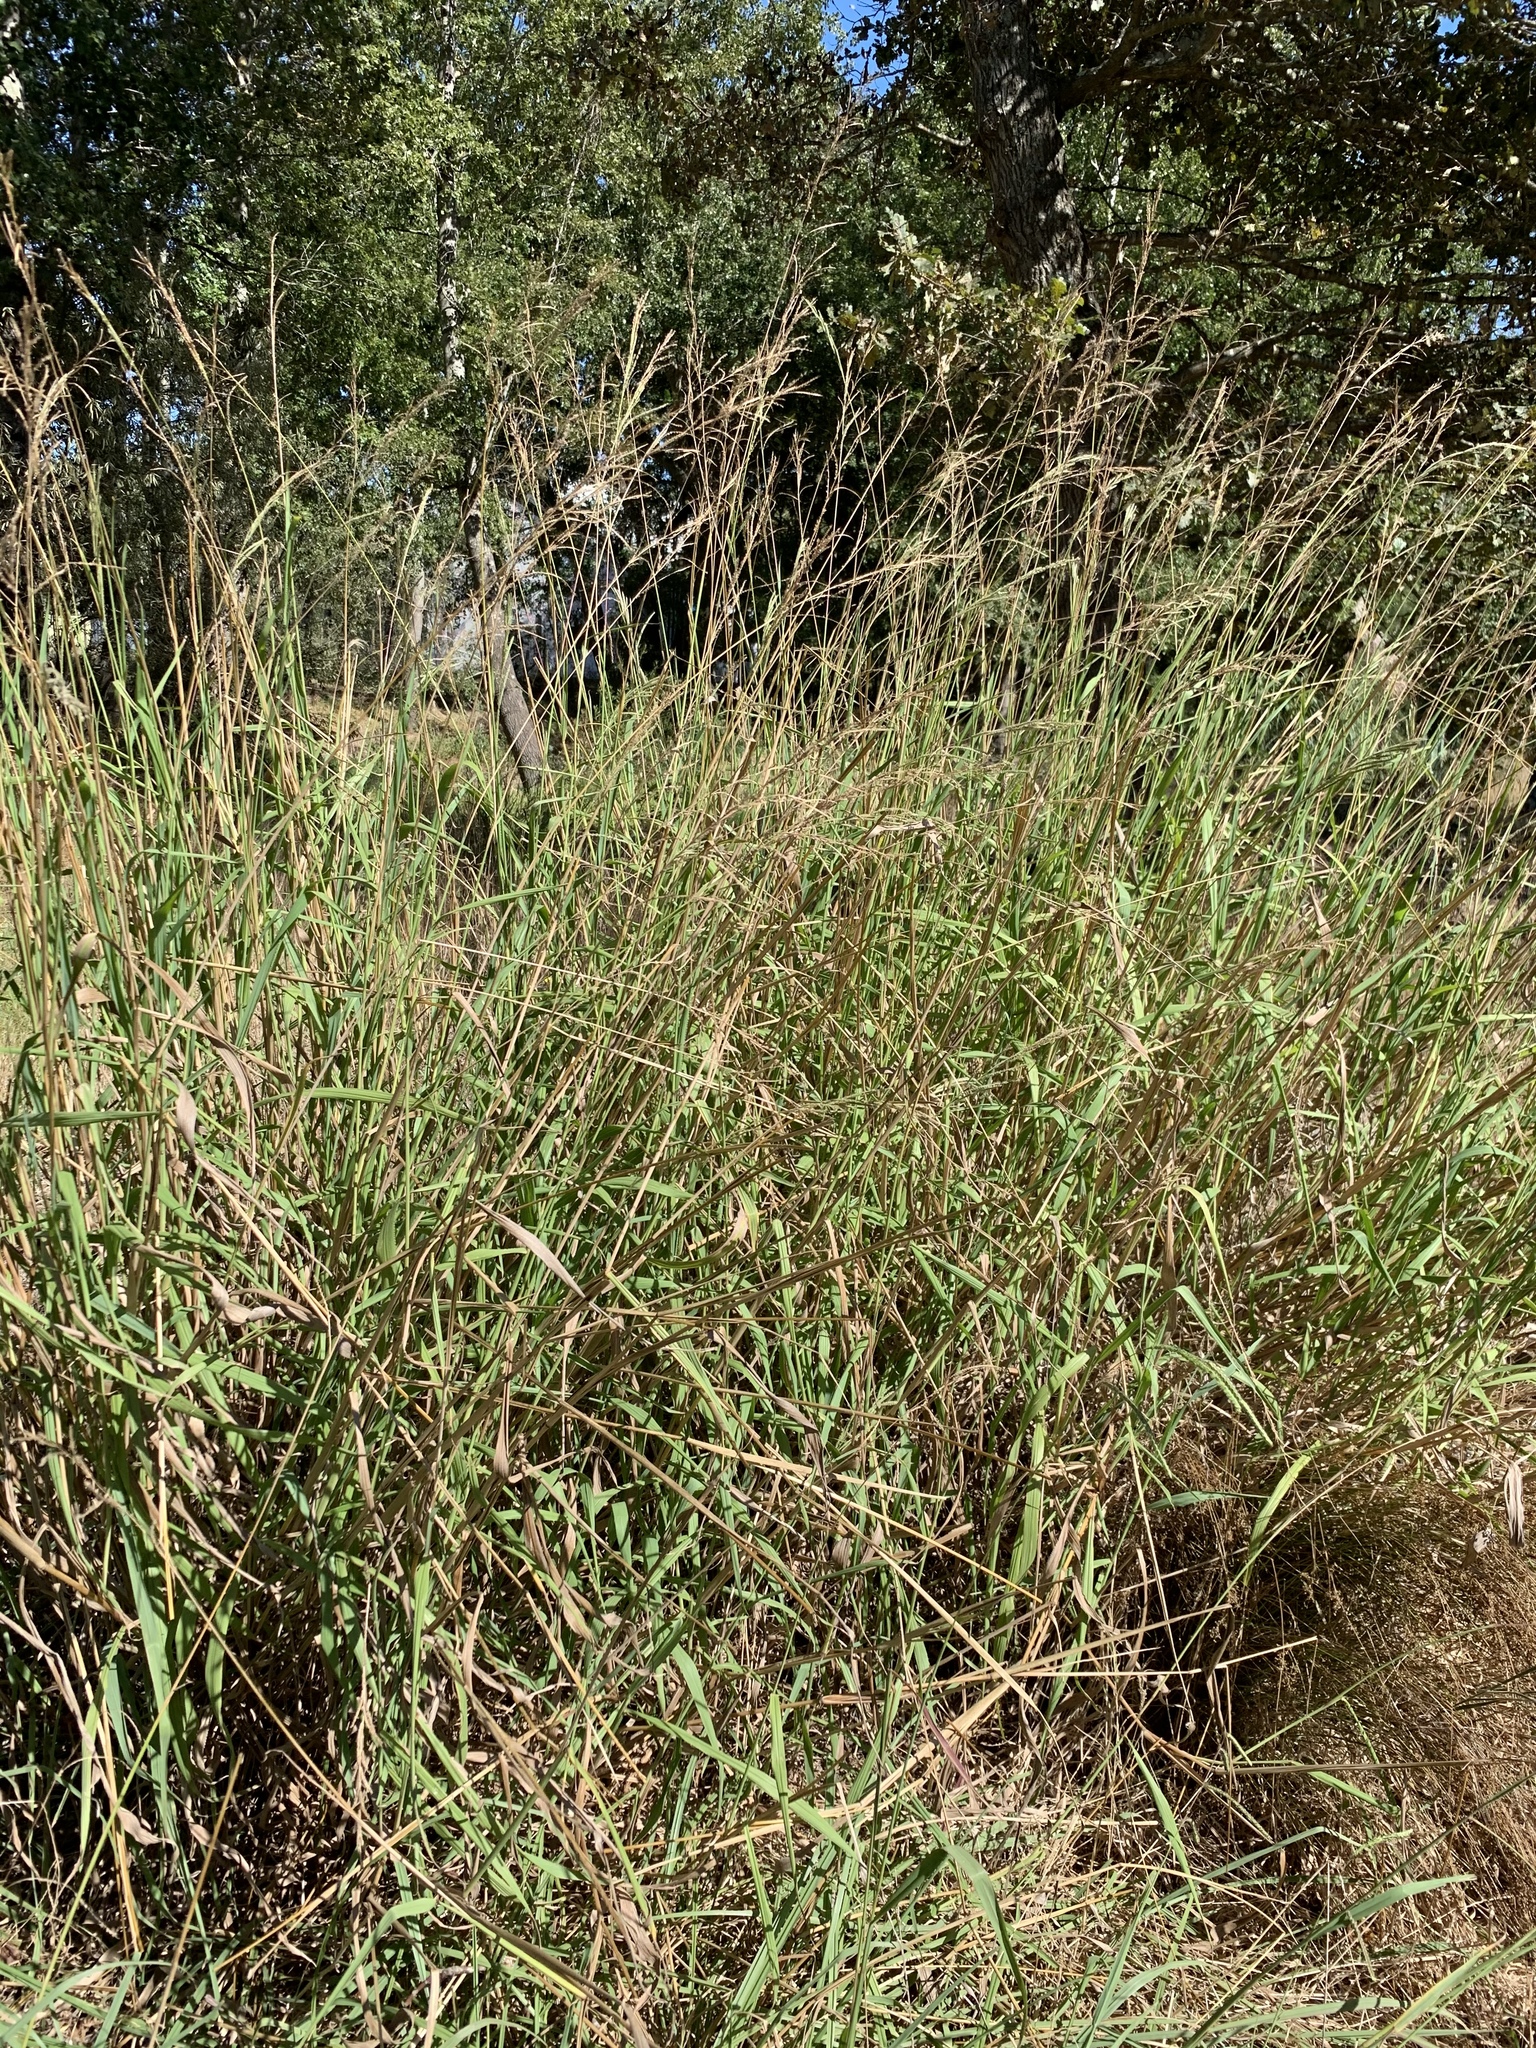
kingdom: Plantae
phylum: Tracheophyta
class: Liliopsida
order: Poales
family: Poaceae
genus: Paspalum
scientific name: Paspalum urvillei
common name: Vasey's grass
